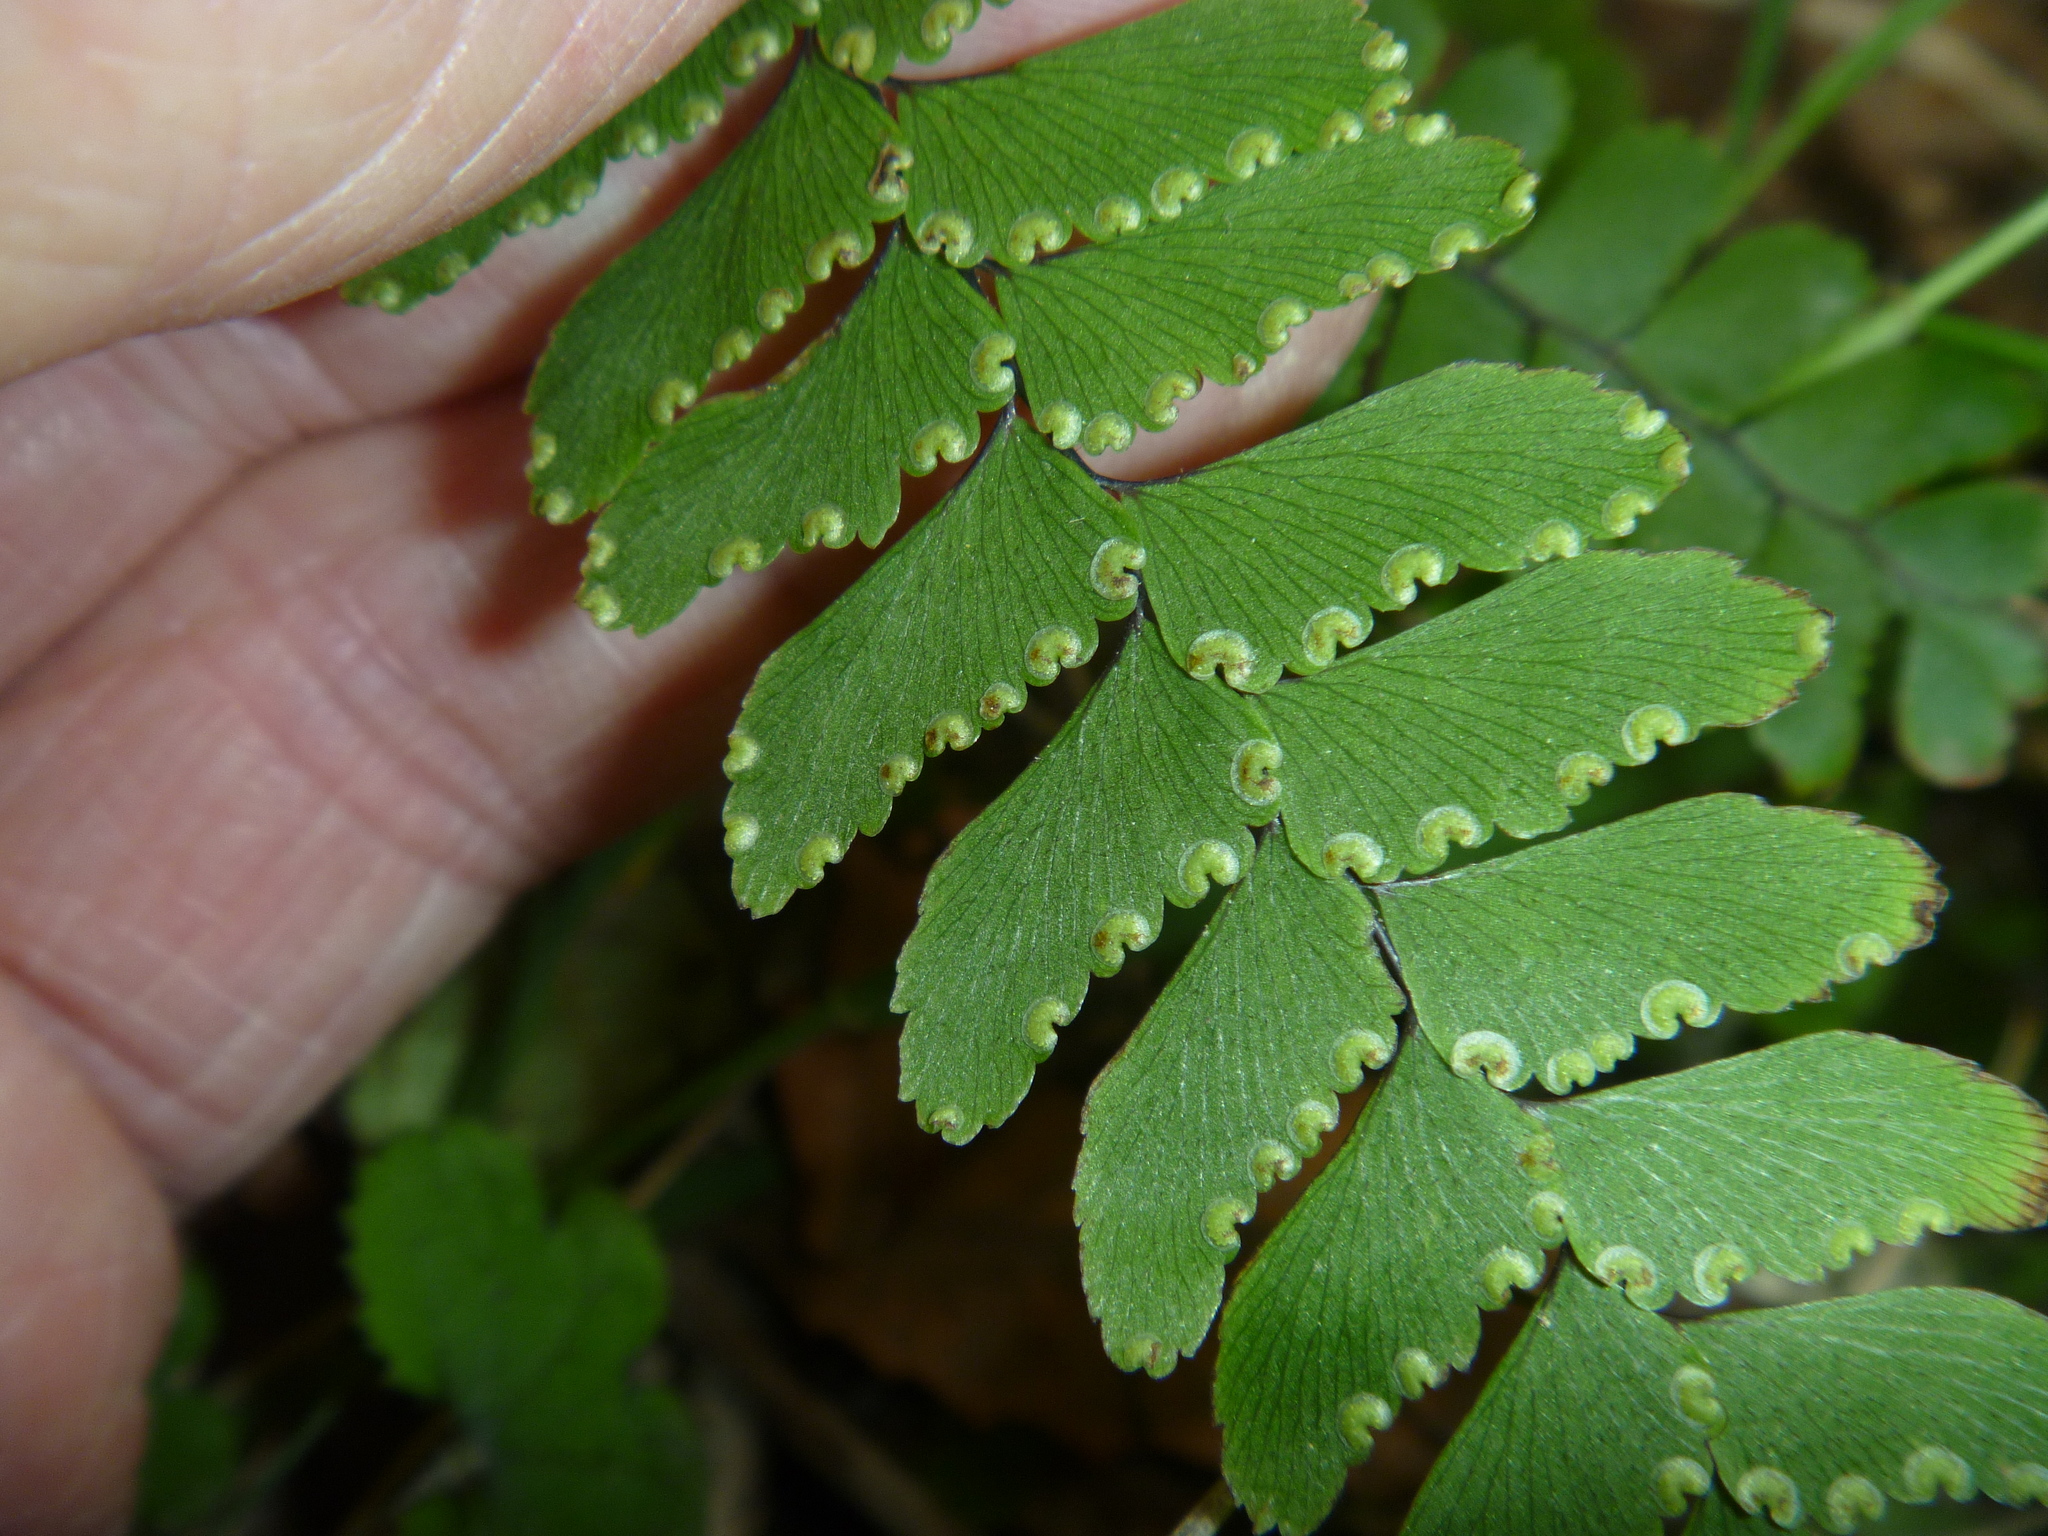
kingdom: Plantae
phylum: Tracheophyta
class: Polypodiopsida
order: Polypodiales
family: Pteridaceae
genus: Adiantum
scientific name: Adiantum fulvum
